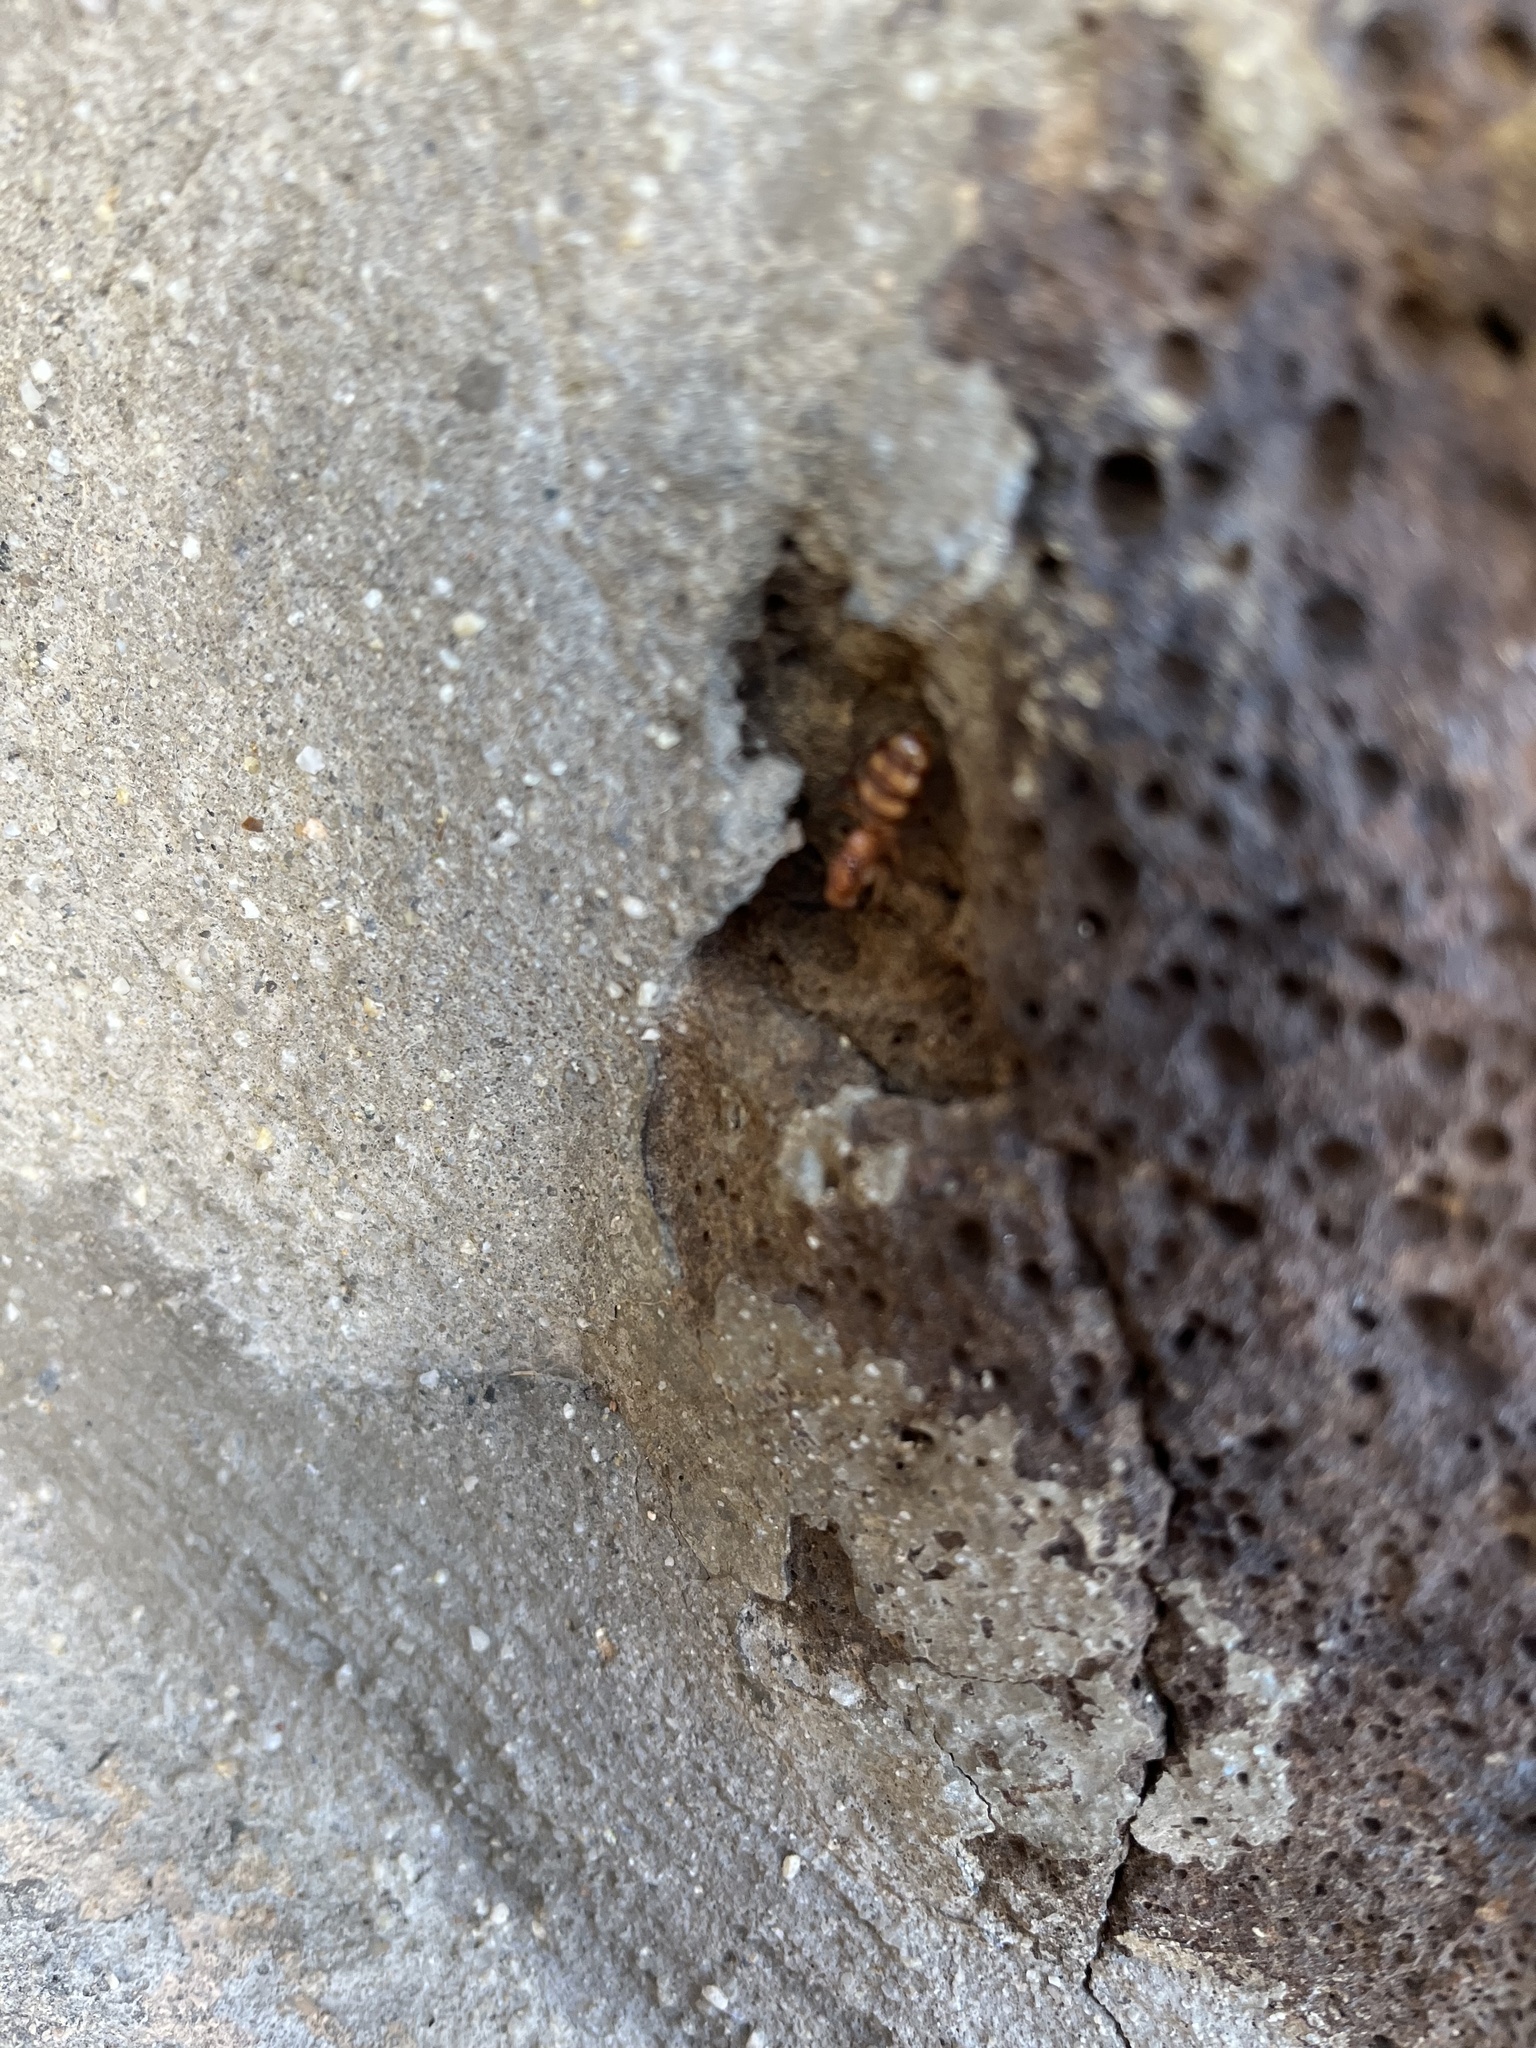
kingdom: Animalia
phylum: Arthropoda
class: Insecta
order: Hymenoptera
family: Formicidae
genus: Camponotus
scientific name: Camponotus variegatus
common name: Hawaiian carpenter ant
